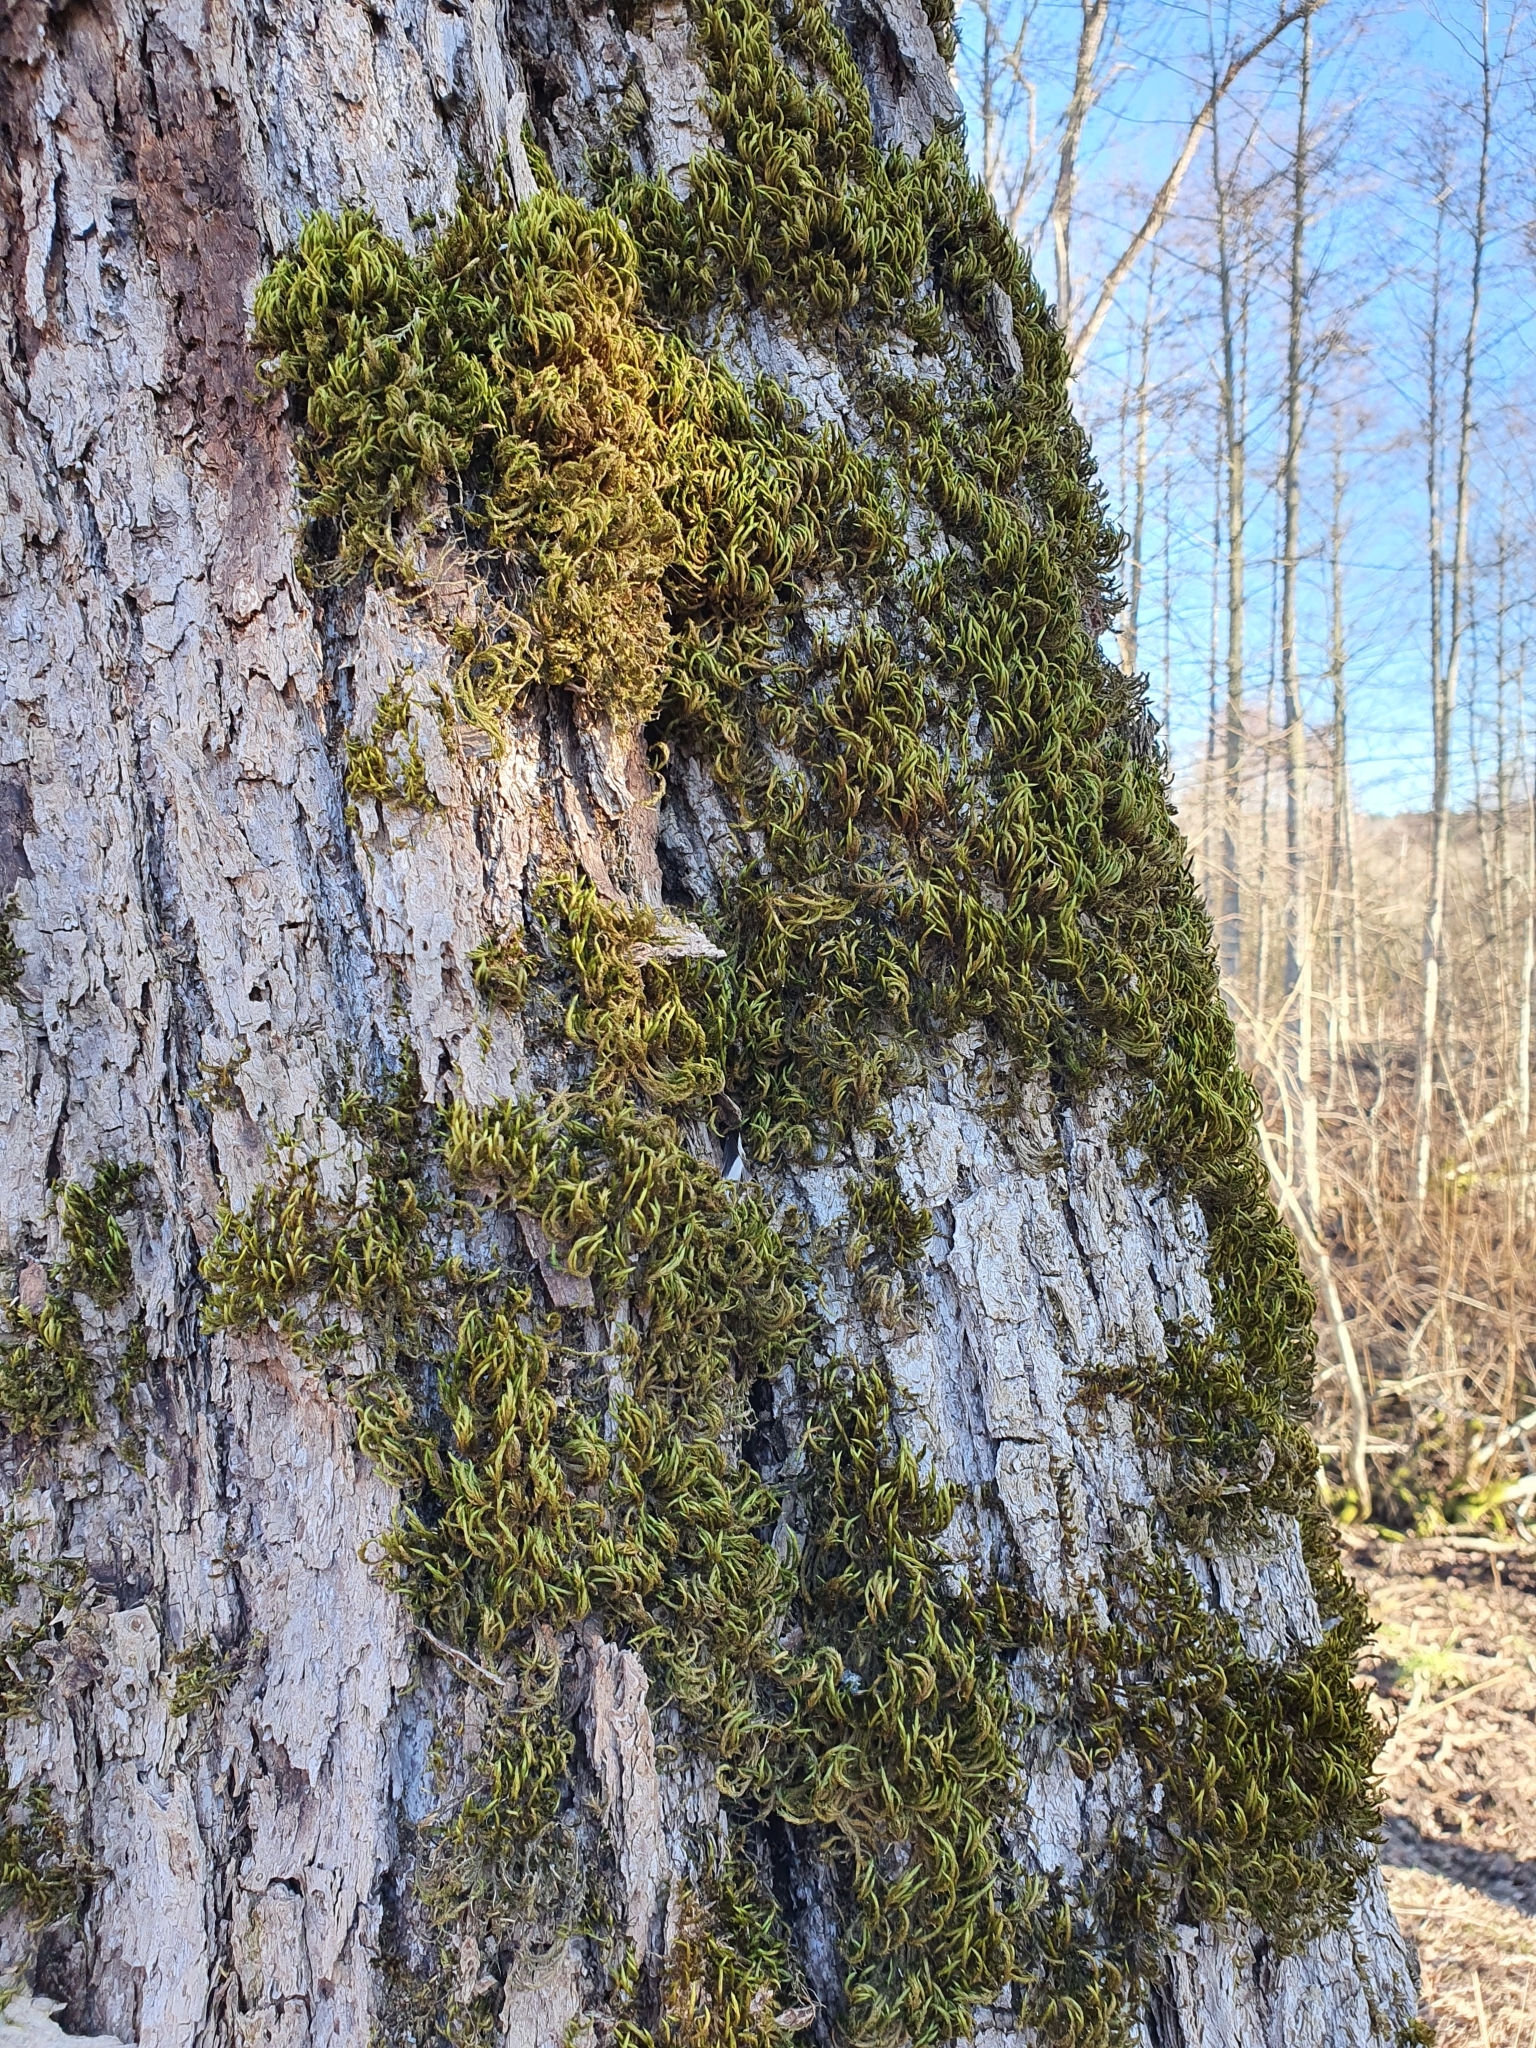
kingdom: Plantae
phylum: Bryophyta
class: Bryopsida
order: Hypnales
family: Leucodontaceae
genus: Leucodon
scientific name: Leucodon sciuroides
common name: Squirrel-tail moss
